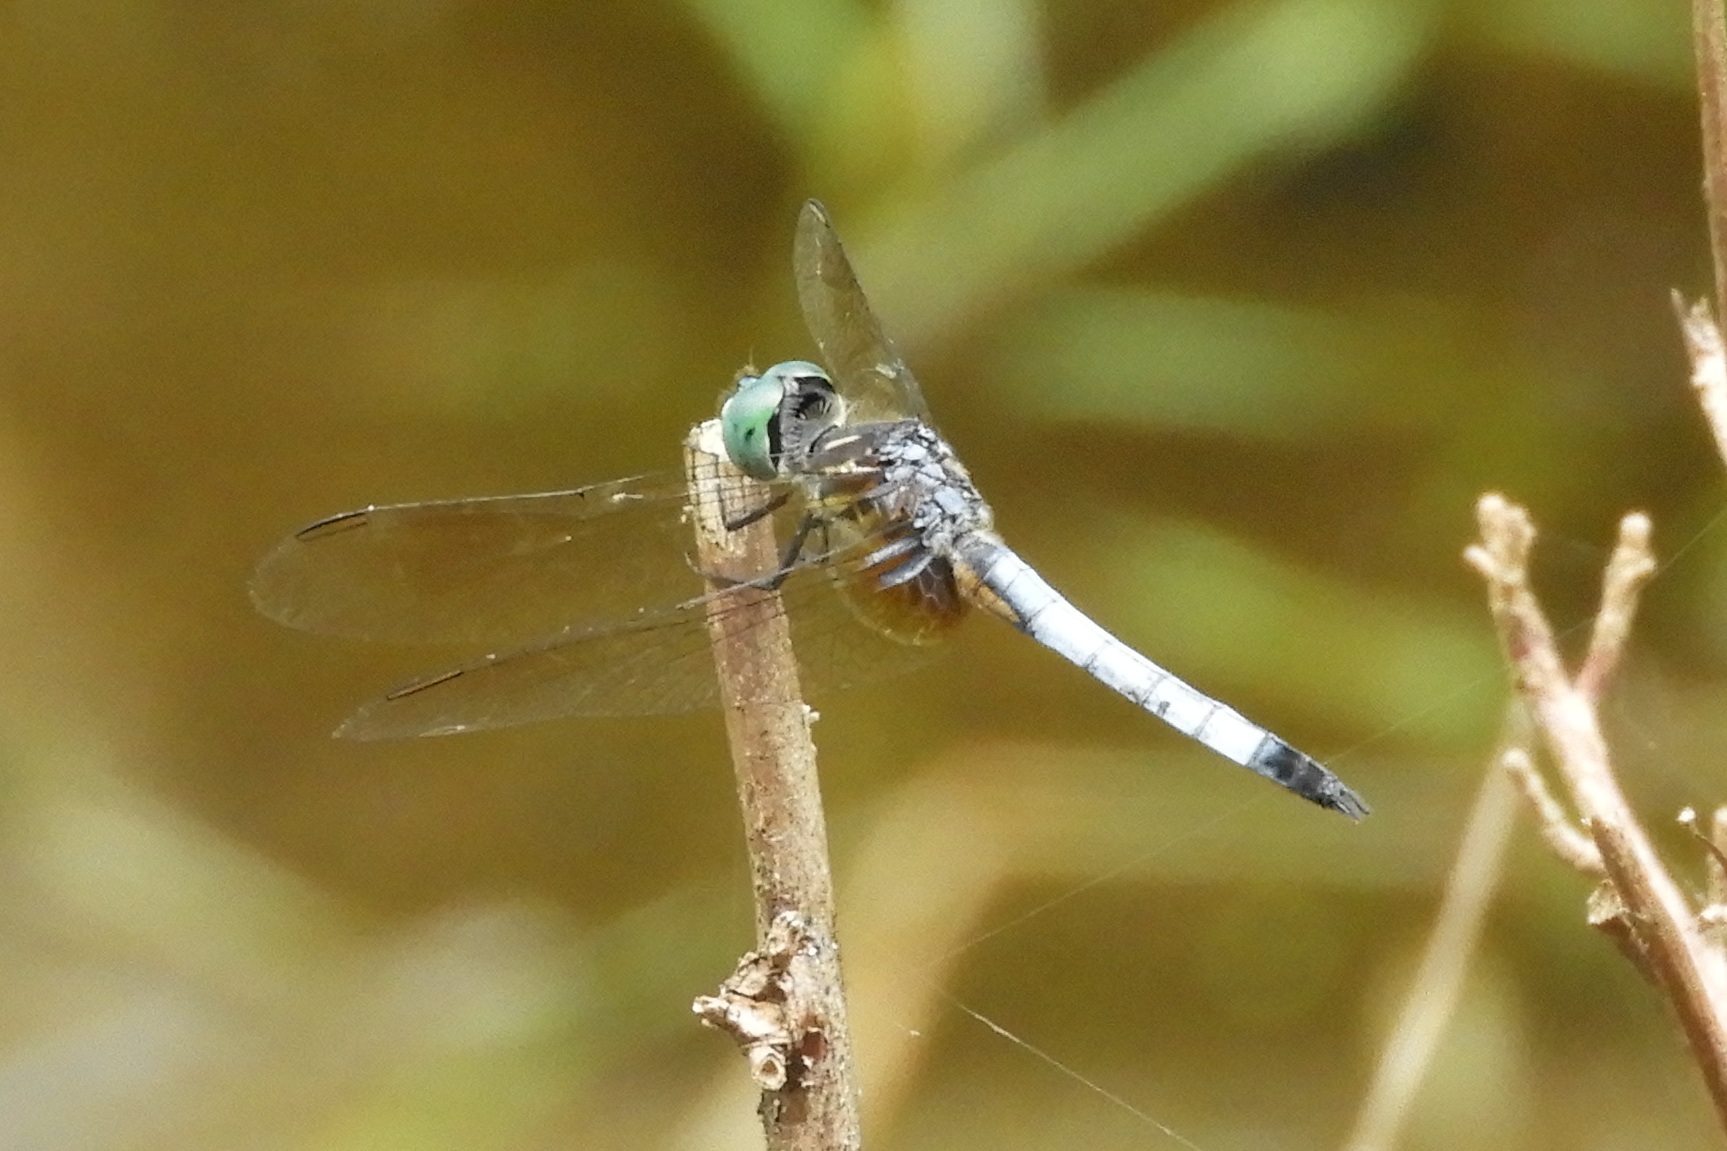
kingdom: Animalia
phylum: Arthropoda
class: Insecta
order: Odonata
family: Libellulidae
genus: Pachydiplax
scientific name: Pachydiplax longipennis
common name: Blue dasher
